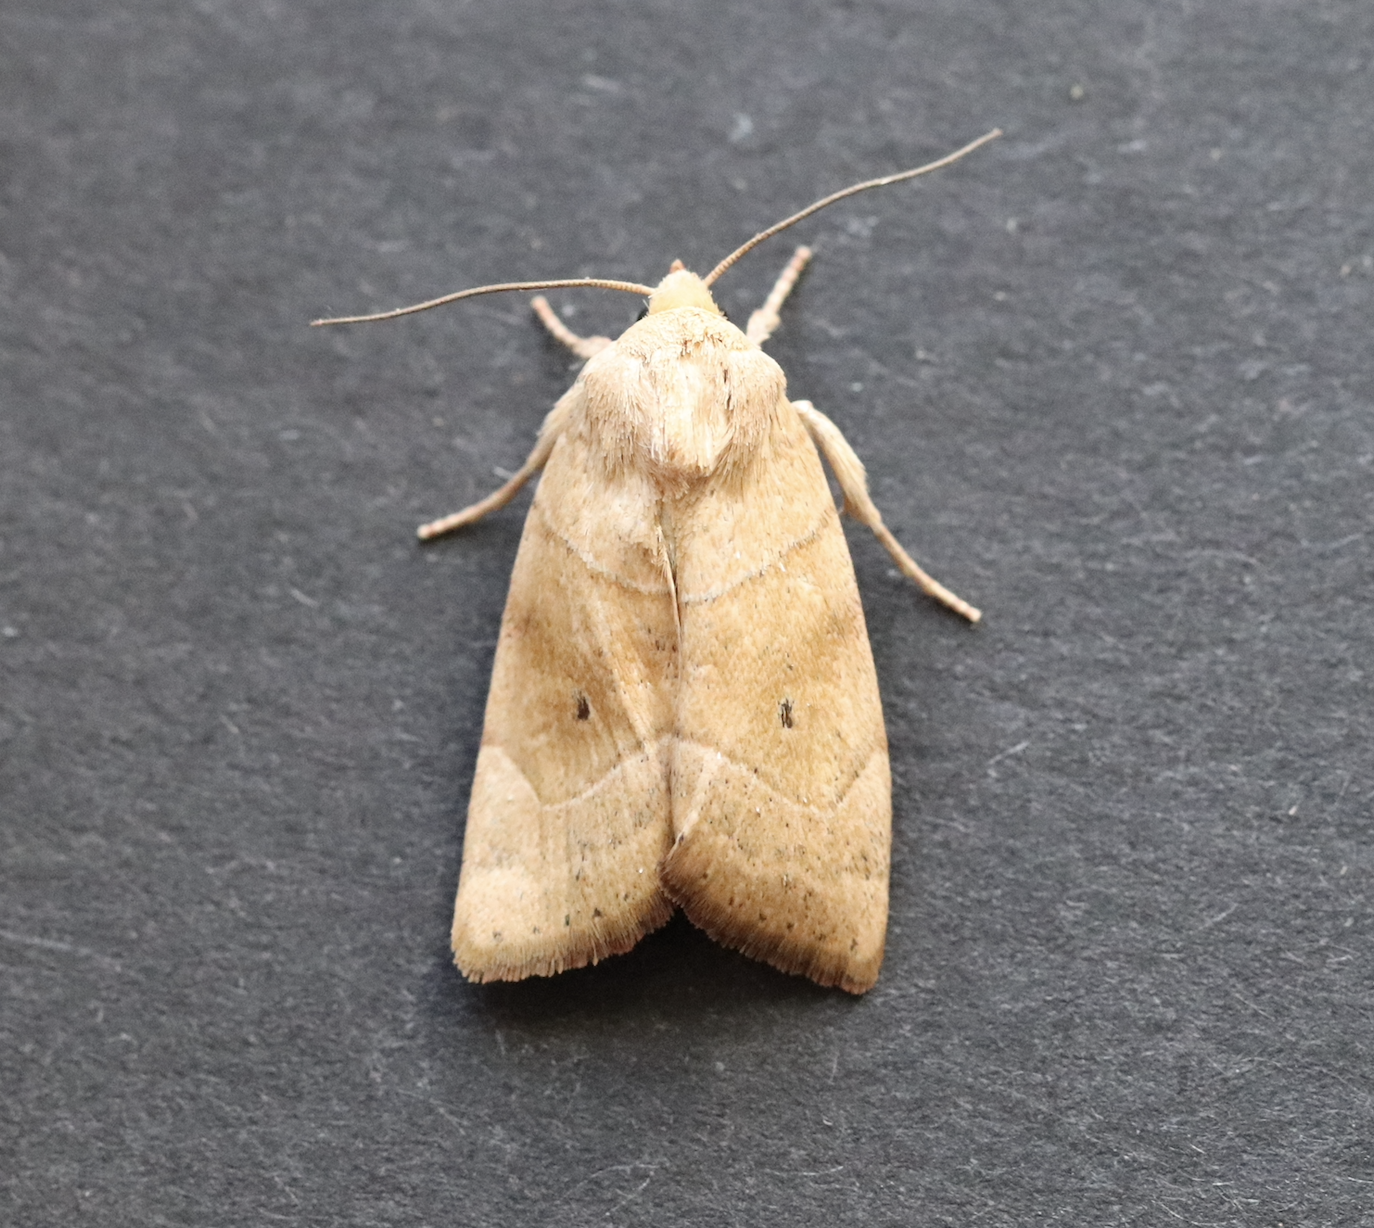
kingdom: Animalia
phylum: Arthropoda
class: Insecta
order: Lepidoptera
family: Noctuidae
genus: Cosmia
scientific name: Cosmia trapezina
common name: Dun-bar
